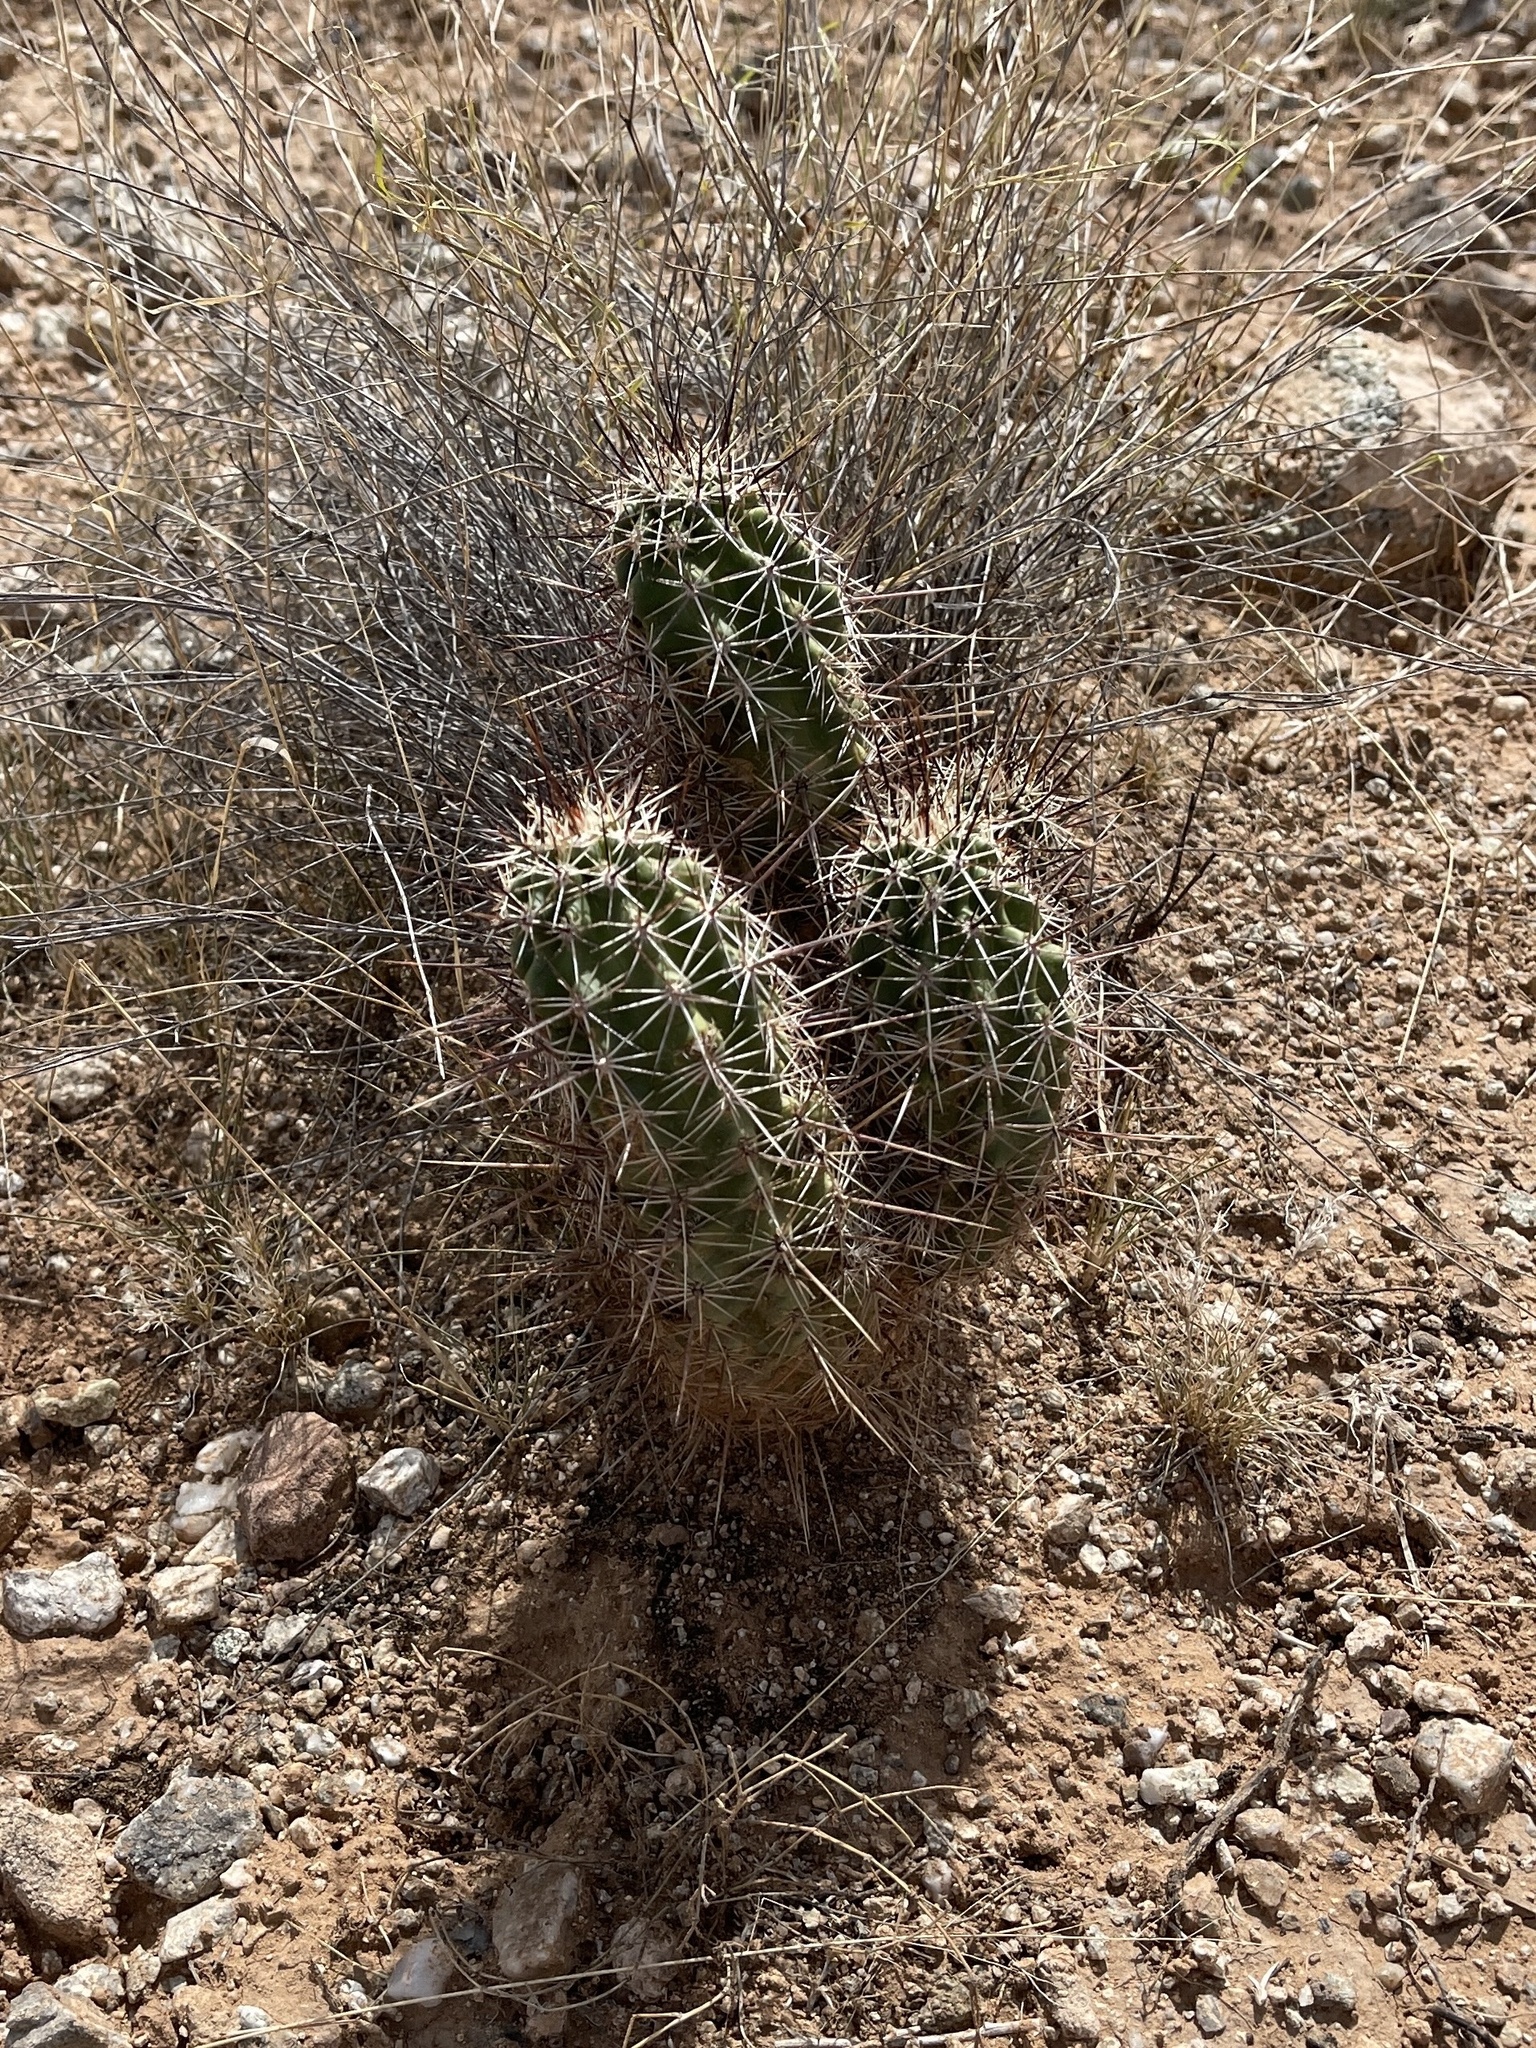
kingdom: Plantae
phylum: Tracheophyta
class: Magnoliopsida
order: Caryophyllales
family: Cactaceae
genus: Echinocereus
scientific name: Echinocereus fasciculatus
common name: Bundle hedgehog
